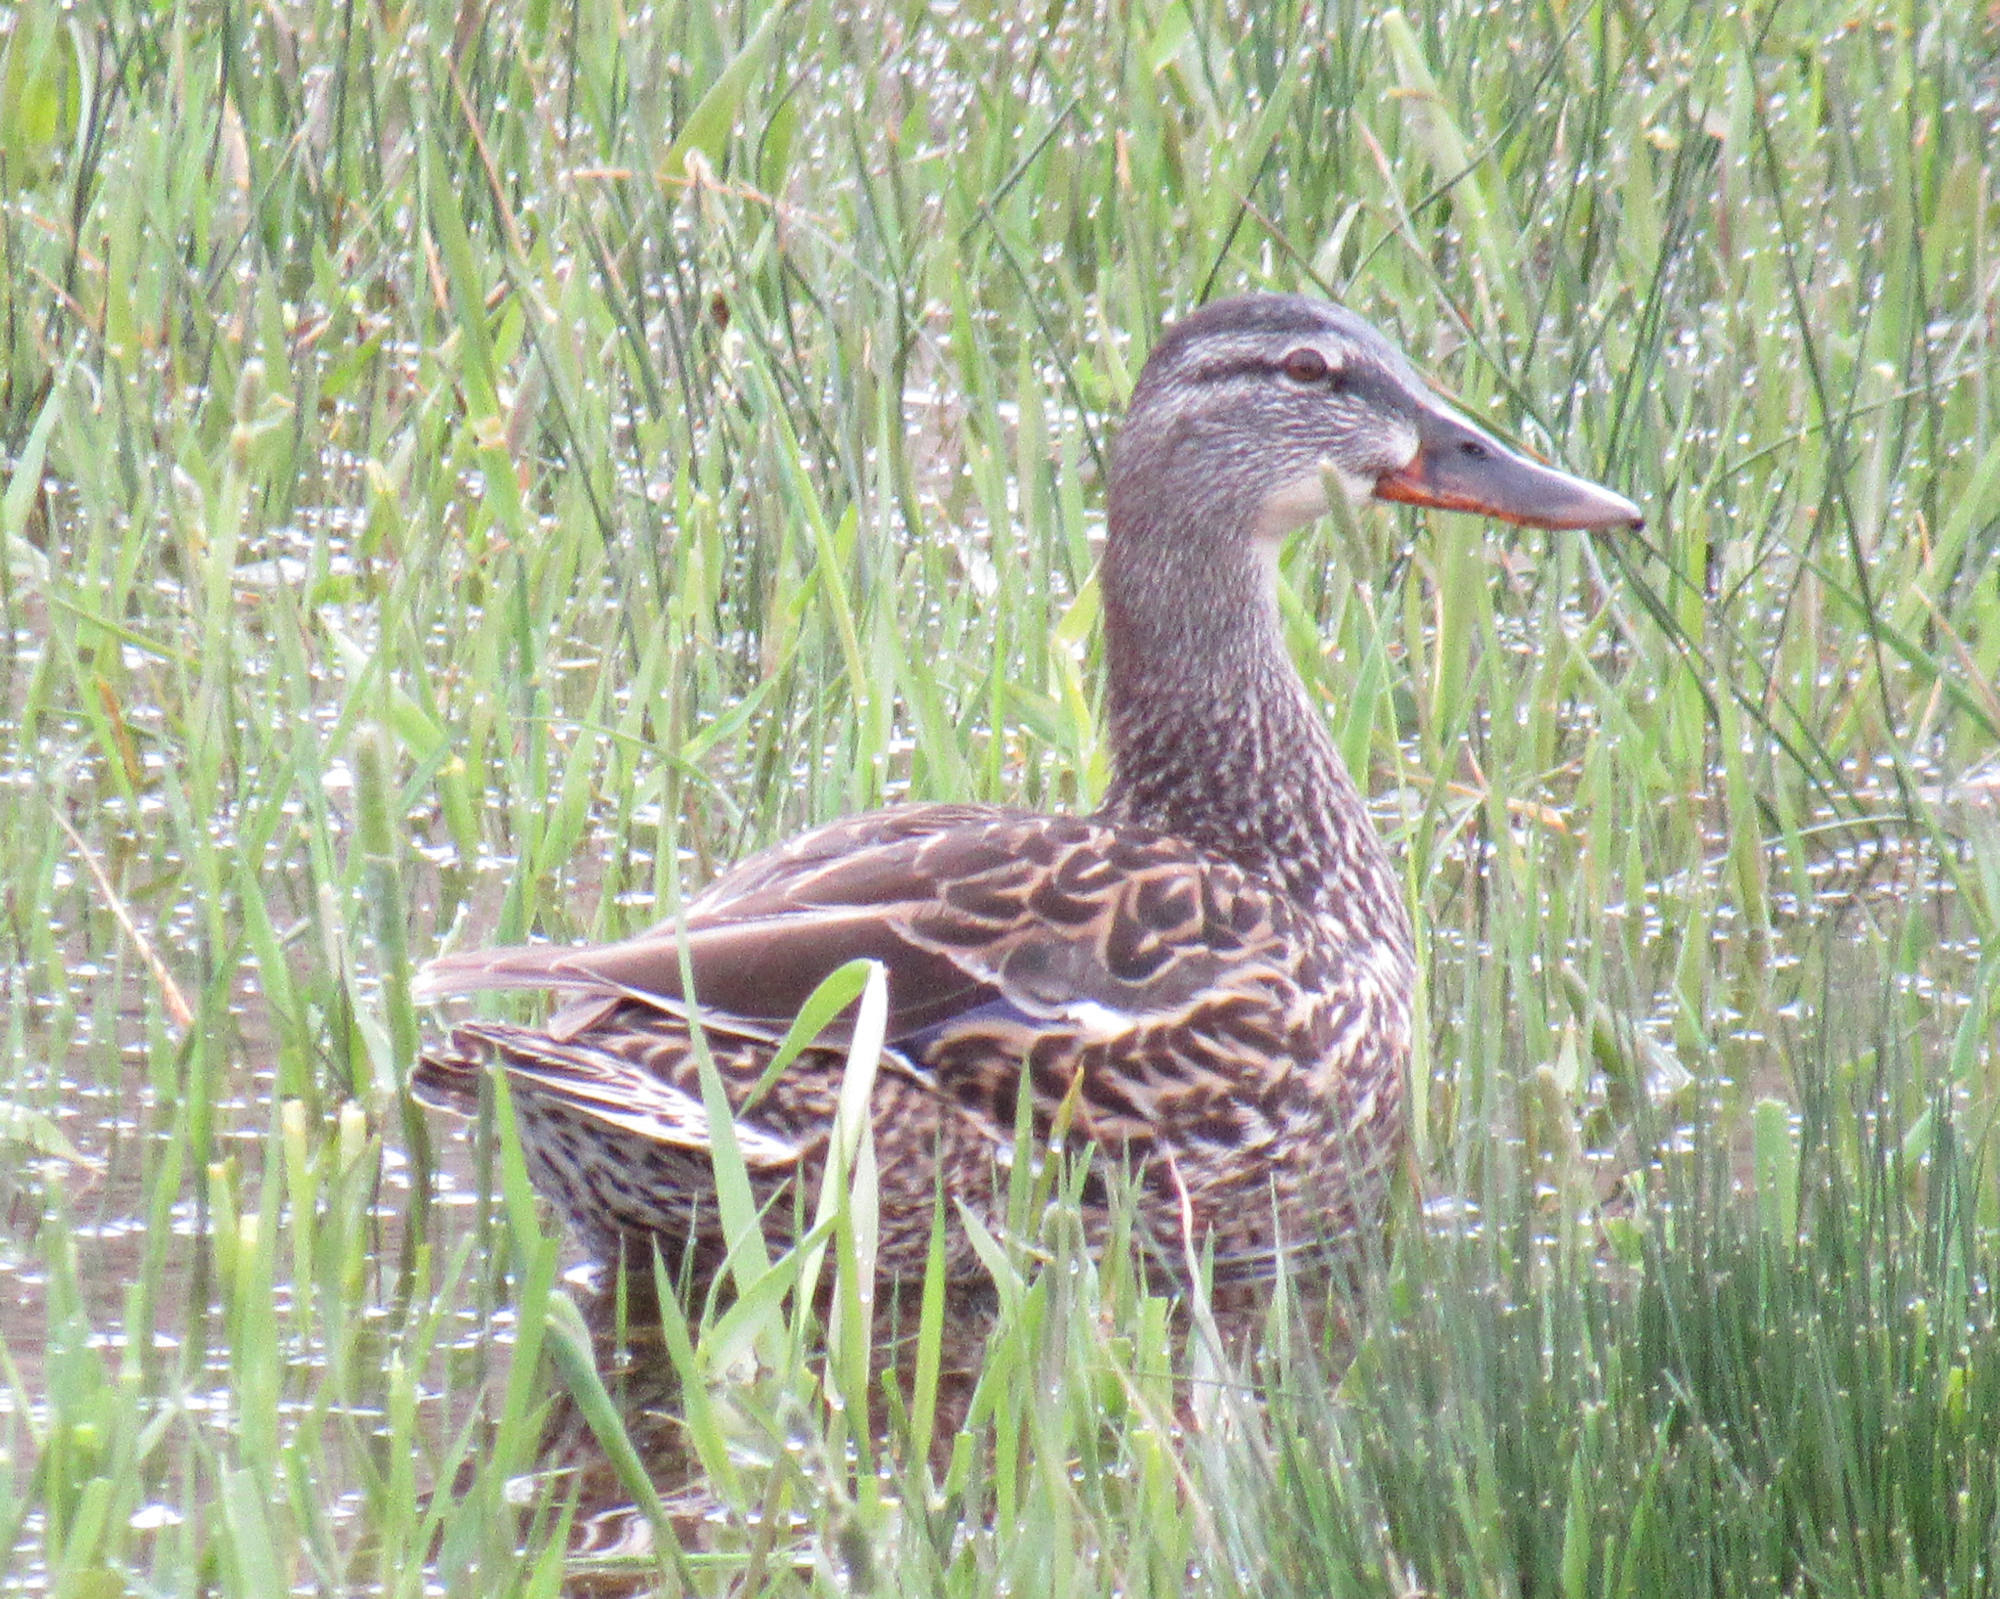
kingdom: Animalia
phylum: Chordata
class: Aves
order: Anseriformes
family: Anatidae
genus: Anas
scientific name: Anas platyrhynchos
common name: Mallard
